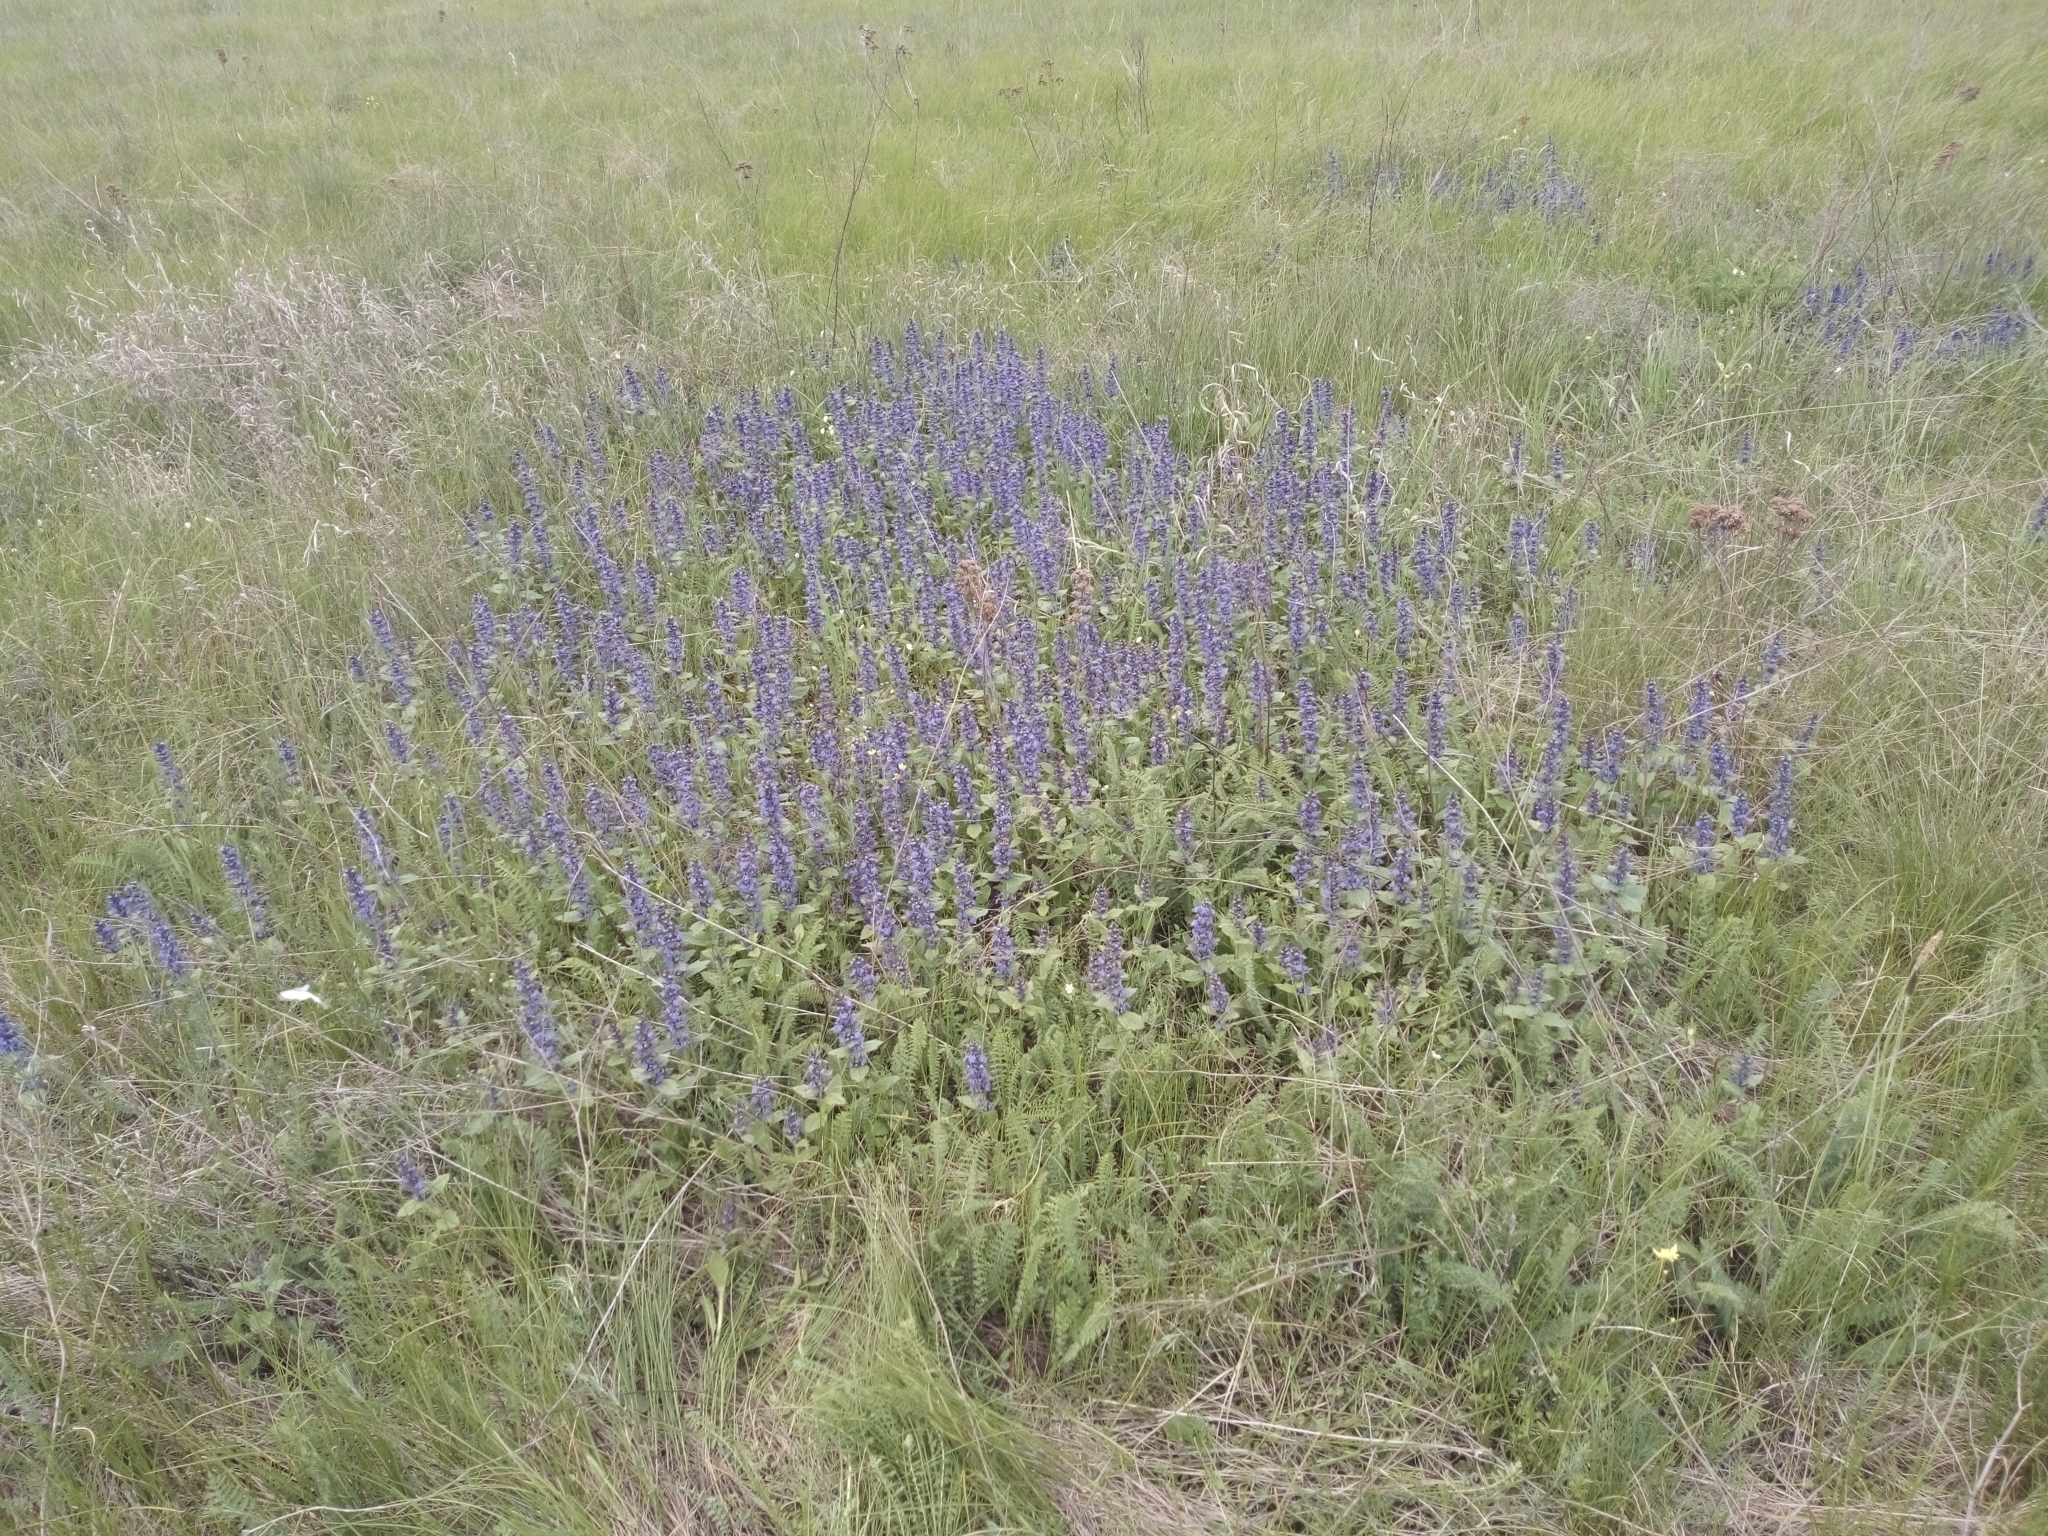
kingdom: Plantae
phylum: Tracheophyta
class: Magnoliopsida
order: Lamiales
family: Lamiaceae
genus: Ajuga
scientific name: Ajuga genevensis
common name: Blue bugle
